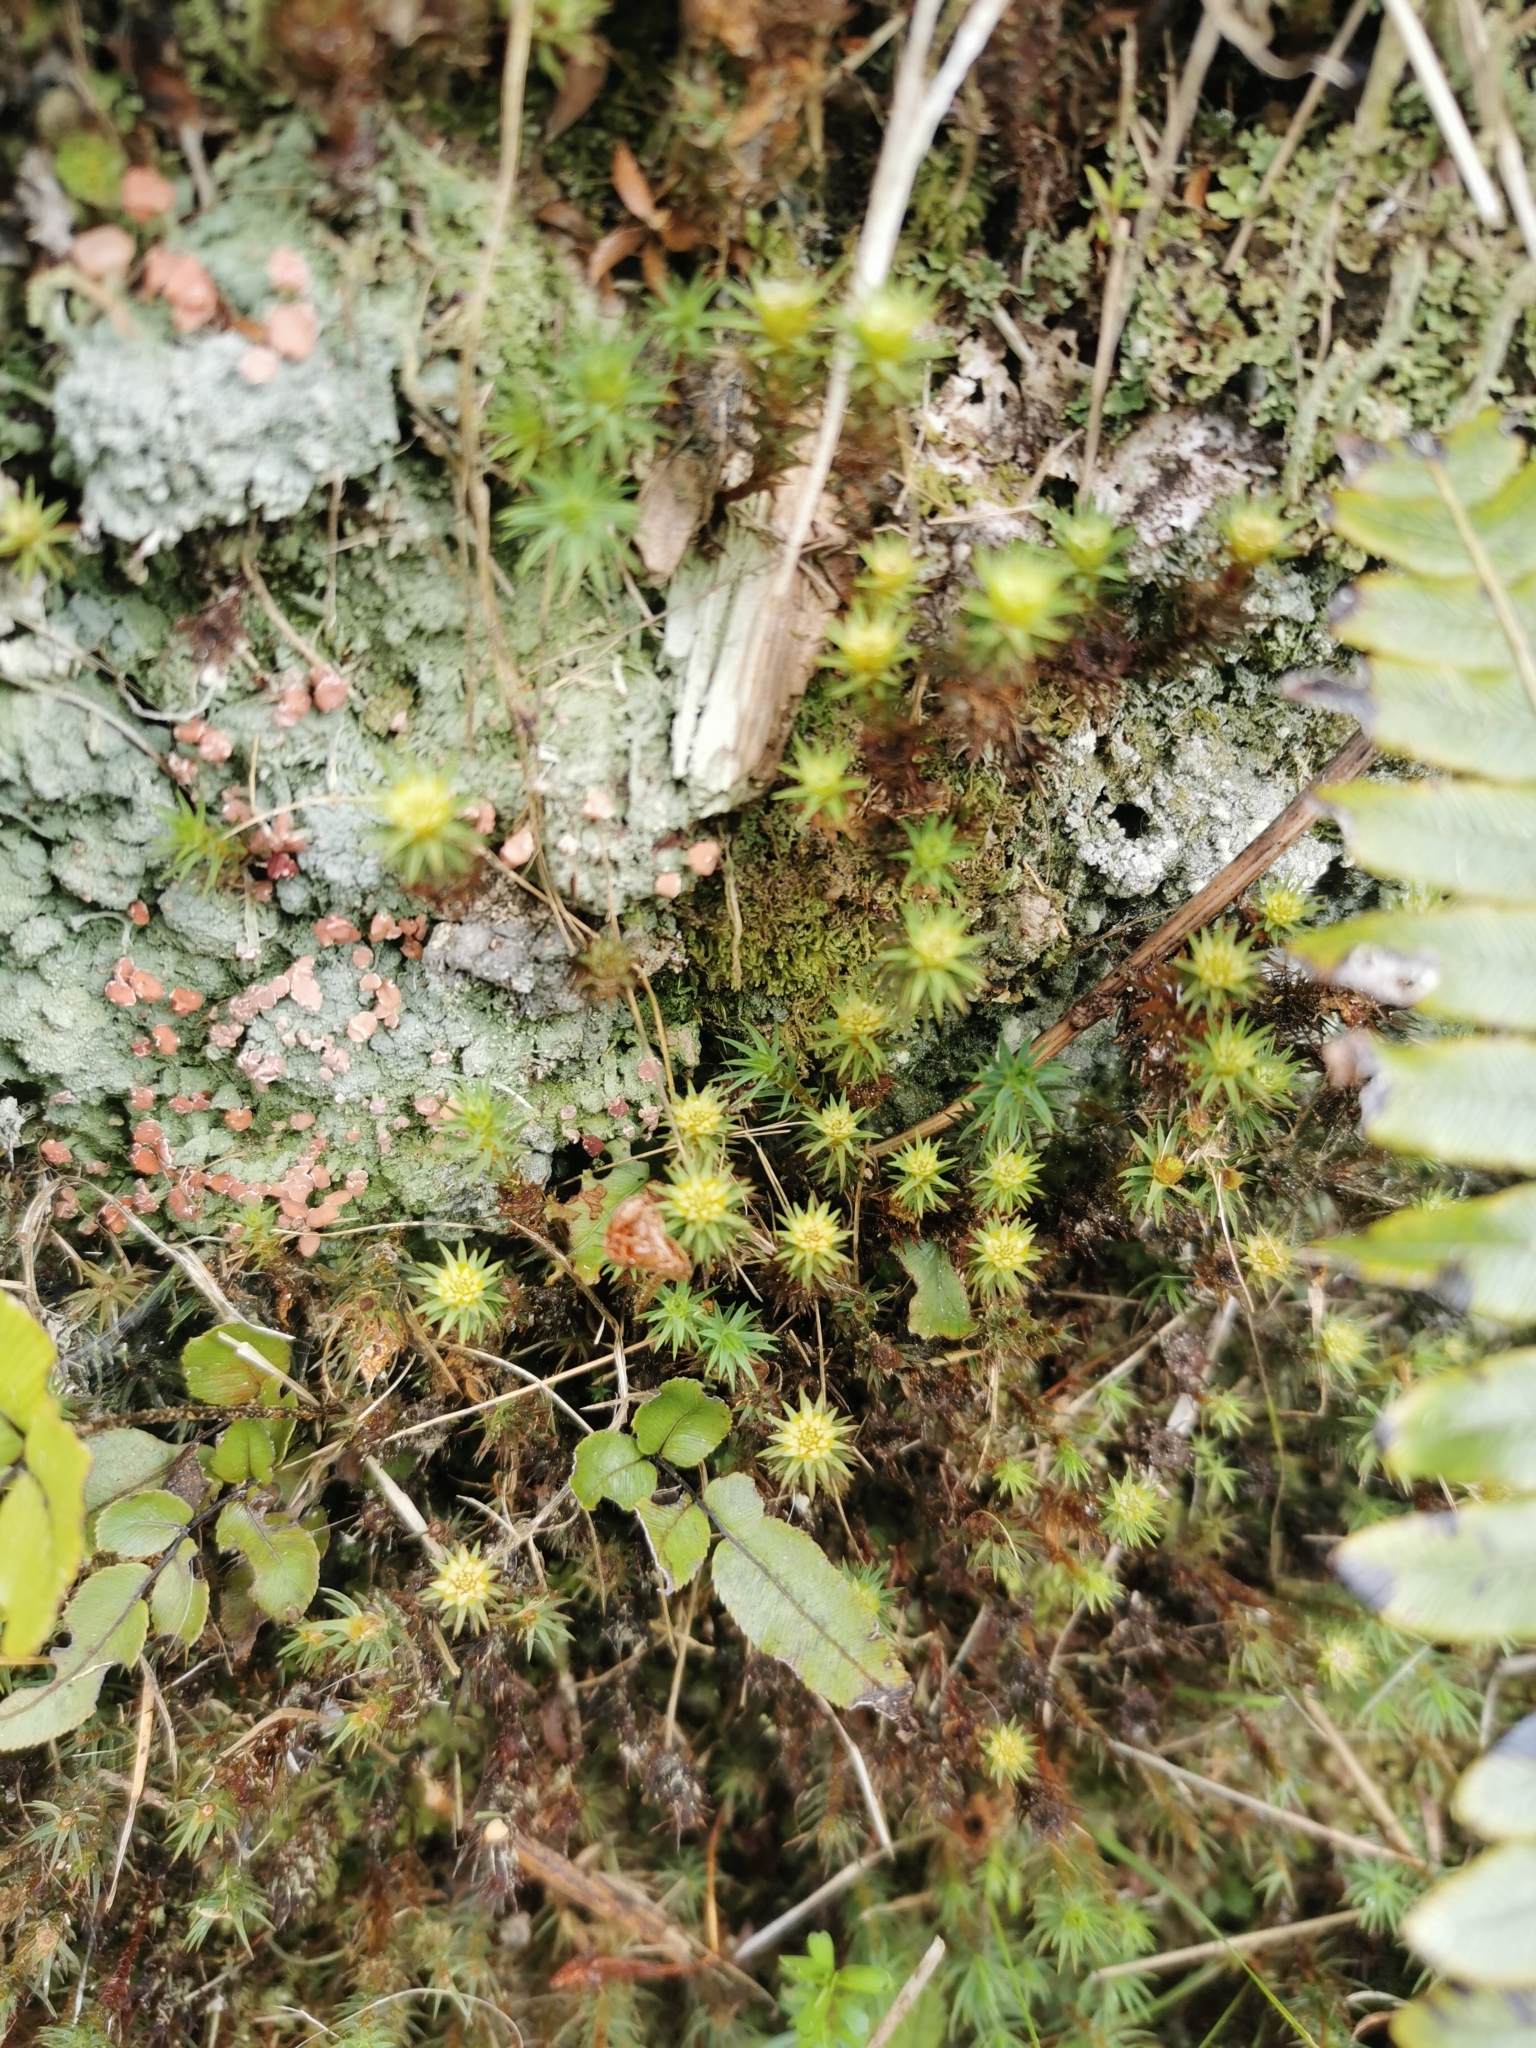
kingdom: Plantae
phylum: Bryophyta
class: Polytrichopsida
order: Polytrichales
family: Polytrichaceae
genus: Polytrichadelphus
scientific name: Polytrichadelphus magellanicus
